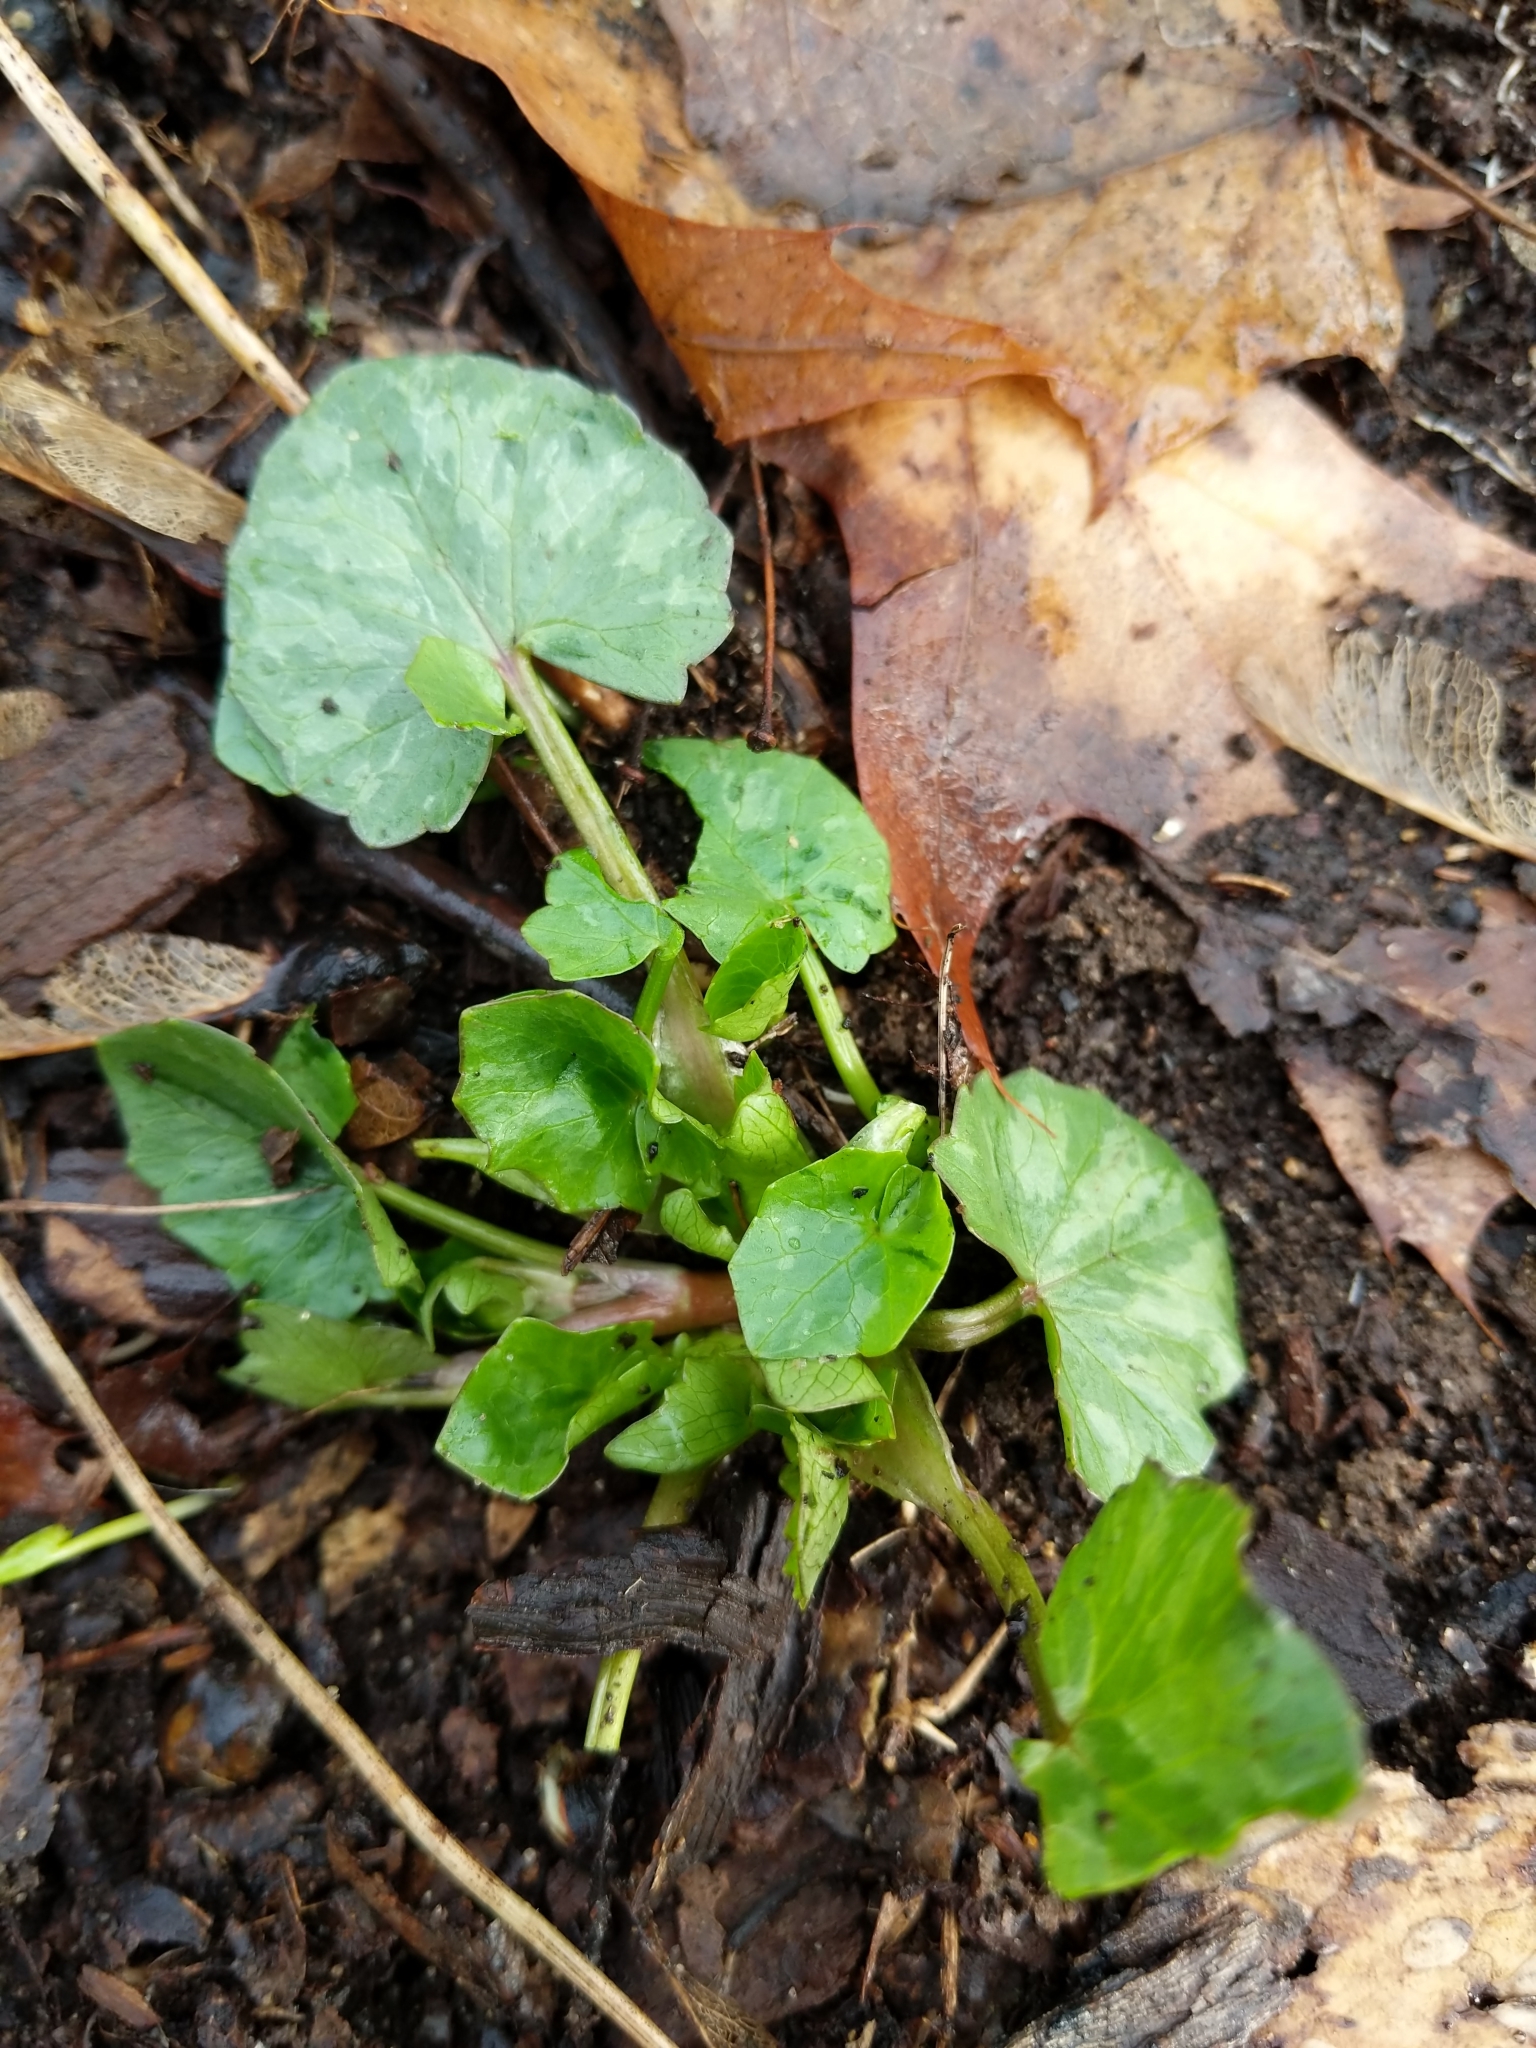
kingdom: Plantae
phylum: Tracheophyta
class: Magnoliopsida
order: Ranunculales
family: Ranunculaceae
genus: Ficaria
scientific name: Ficaria verna
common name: Lesser celandine
